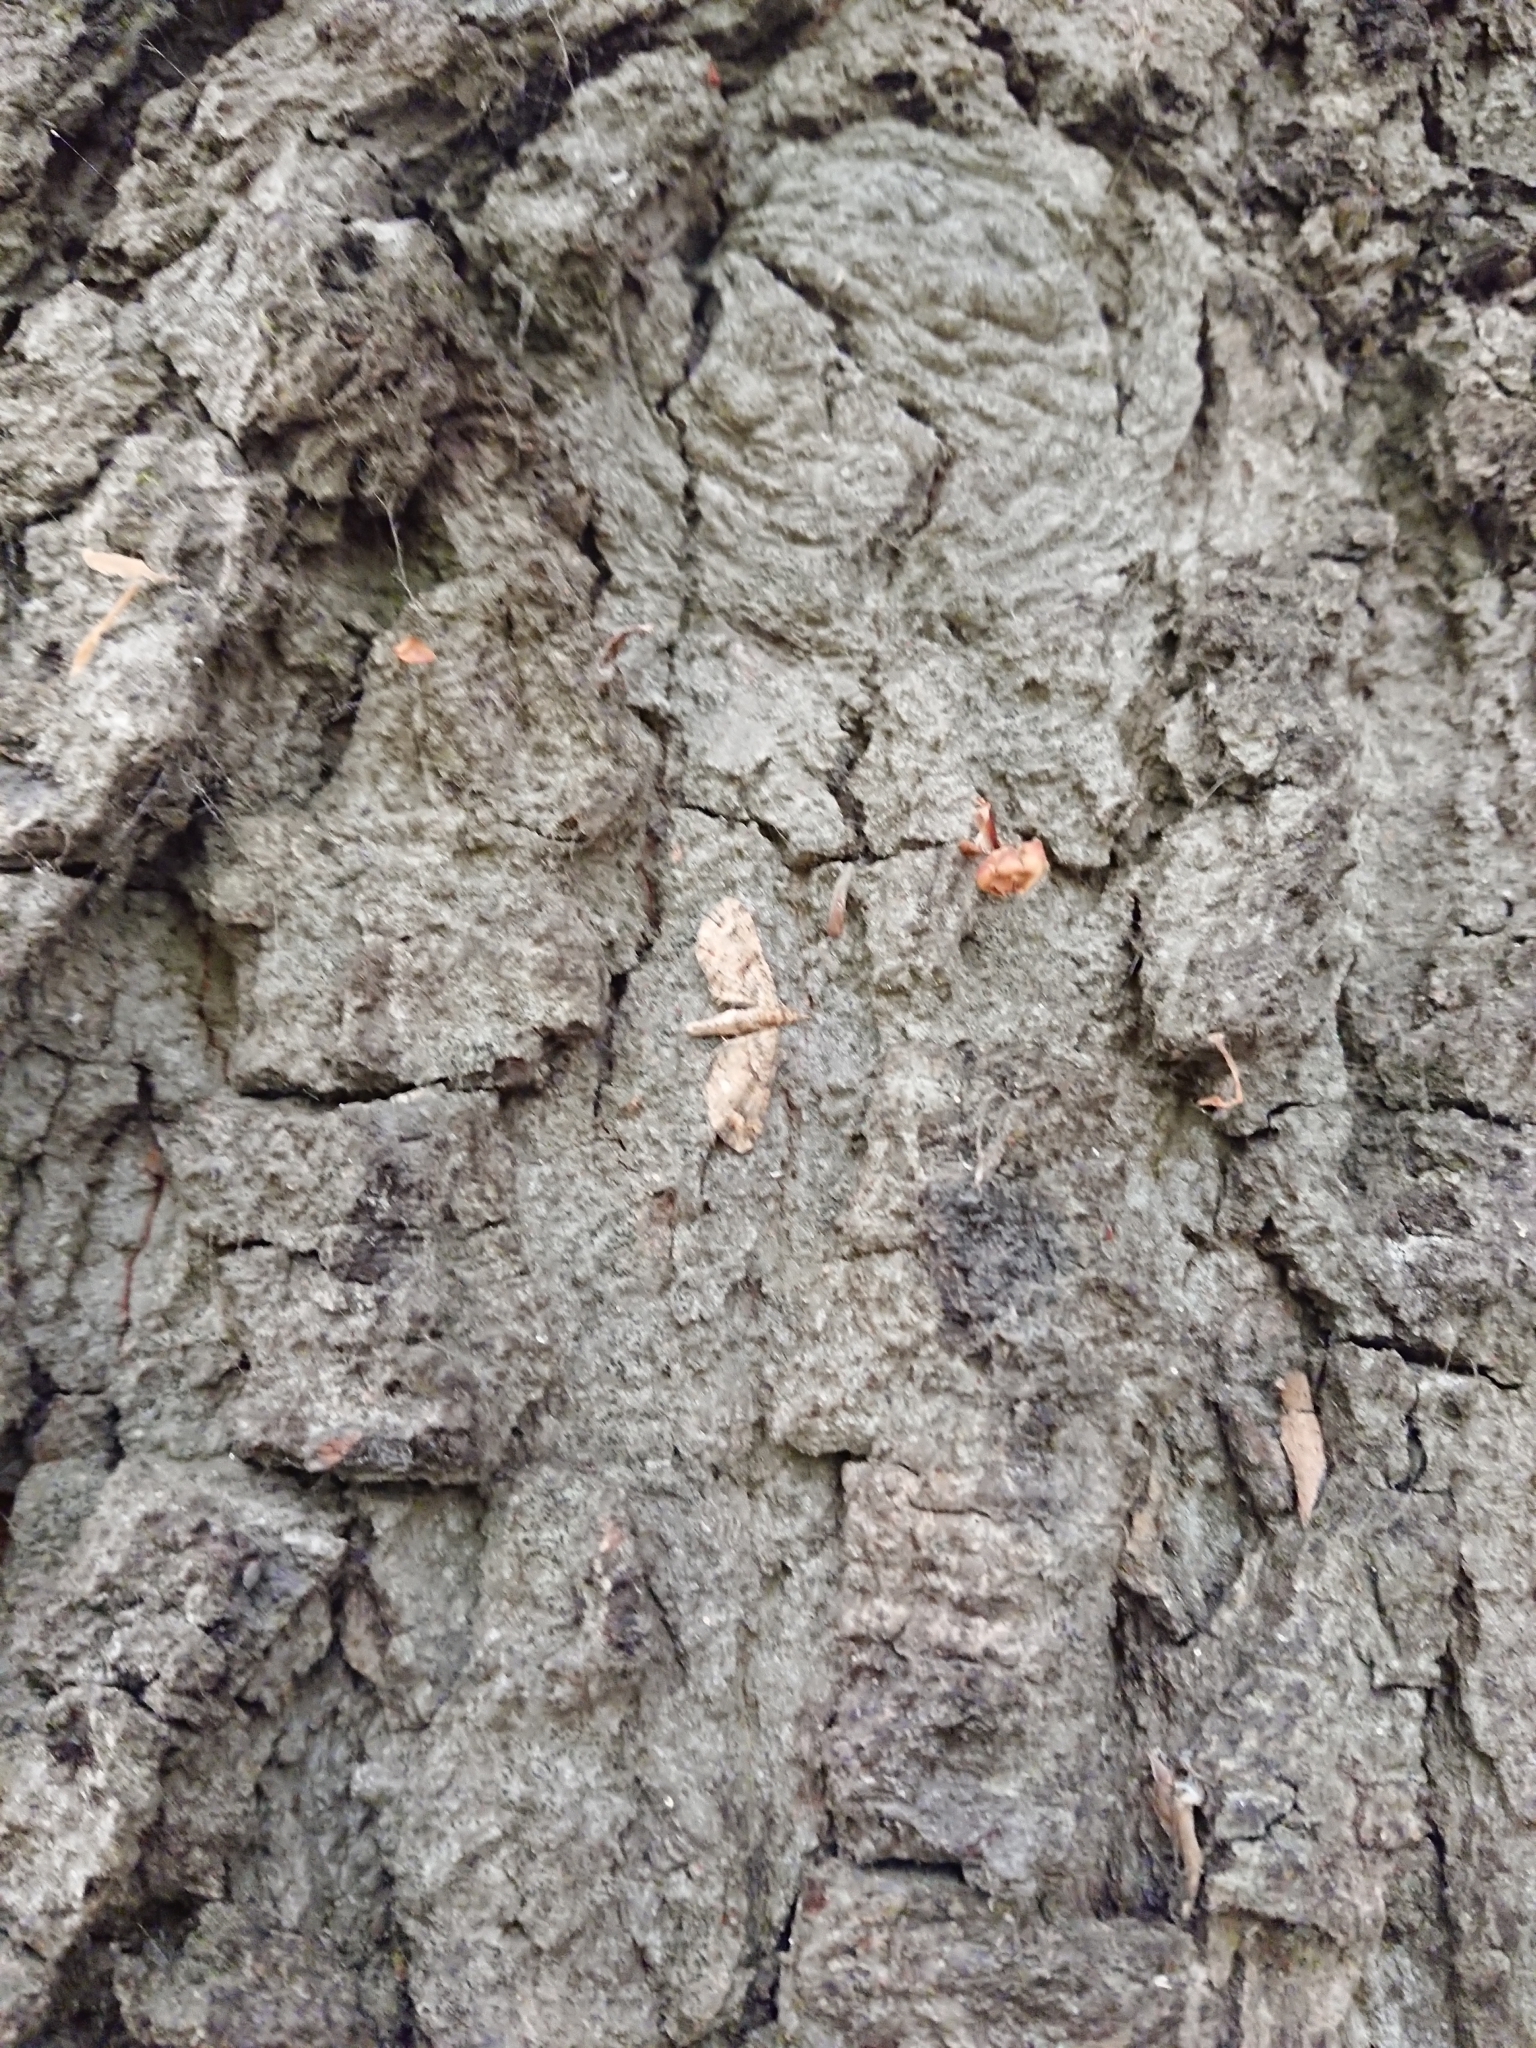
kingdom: Animalia
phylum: Arthropoda
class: Insecta
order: Lepidoptera
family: Geometridae
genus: Idaea
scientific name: Idaea mutanda
